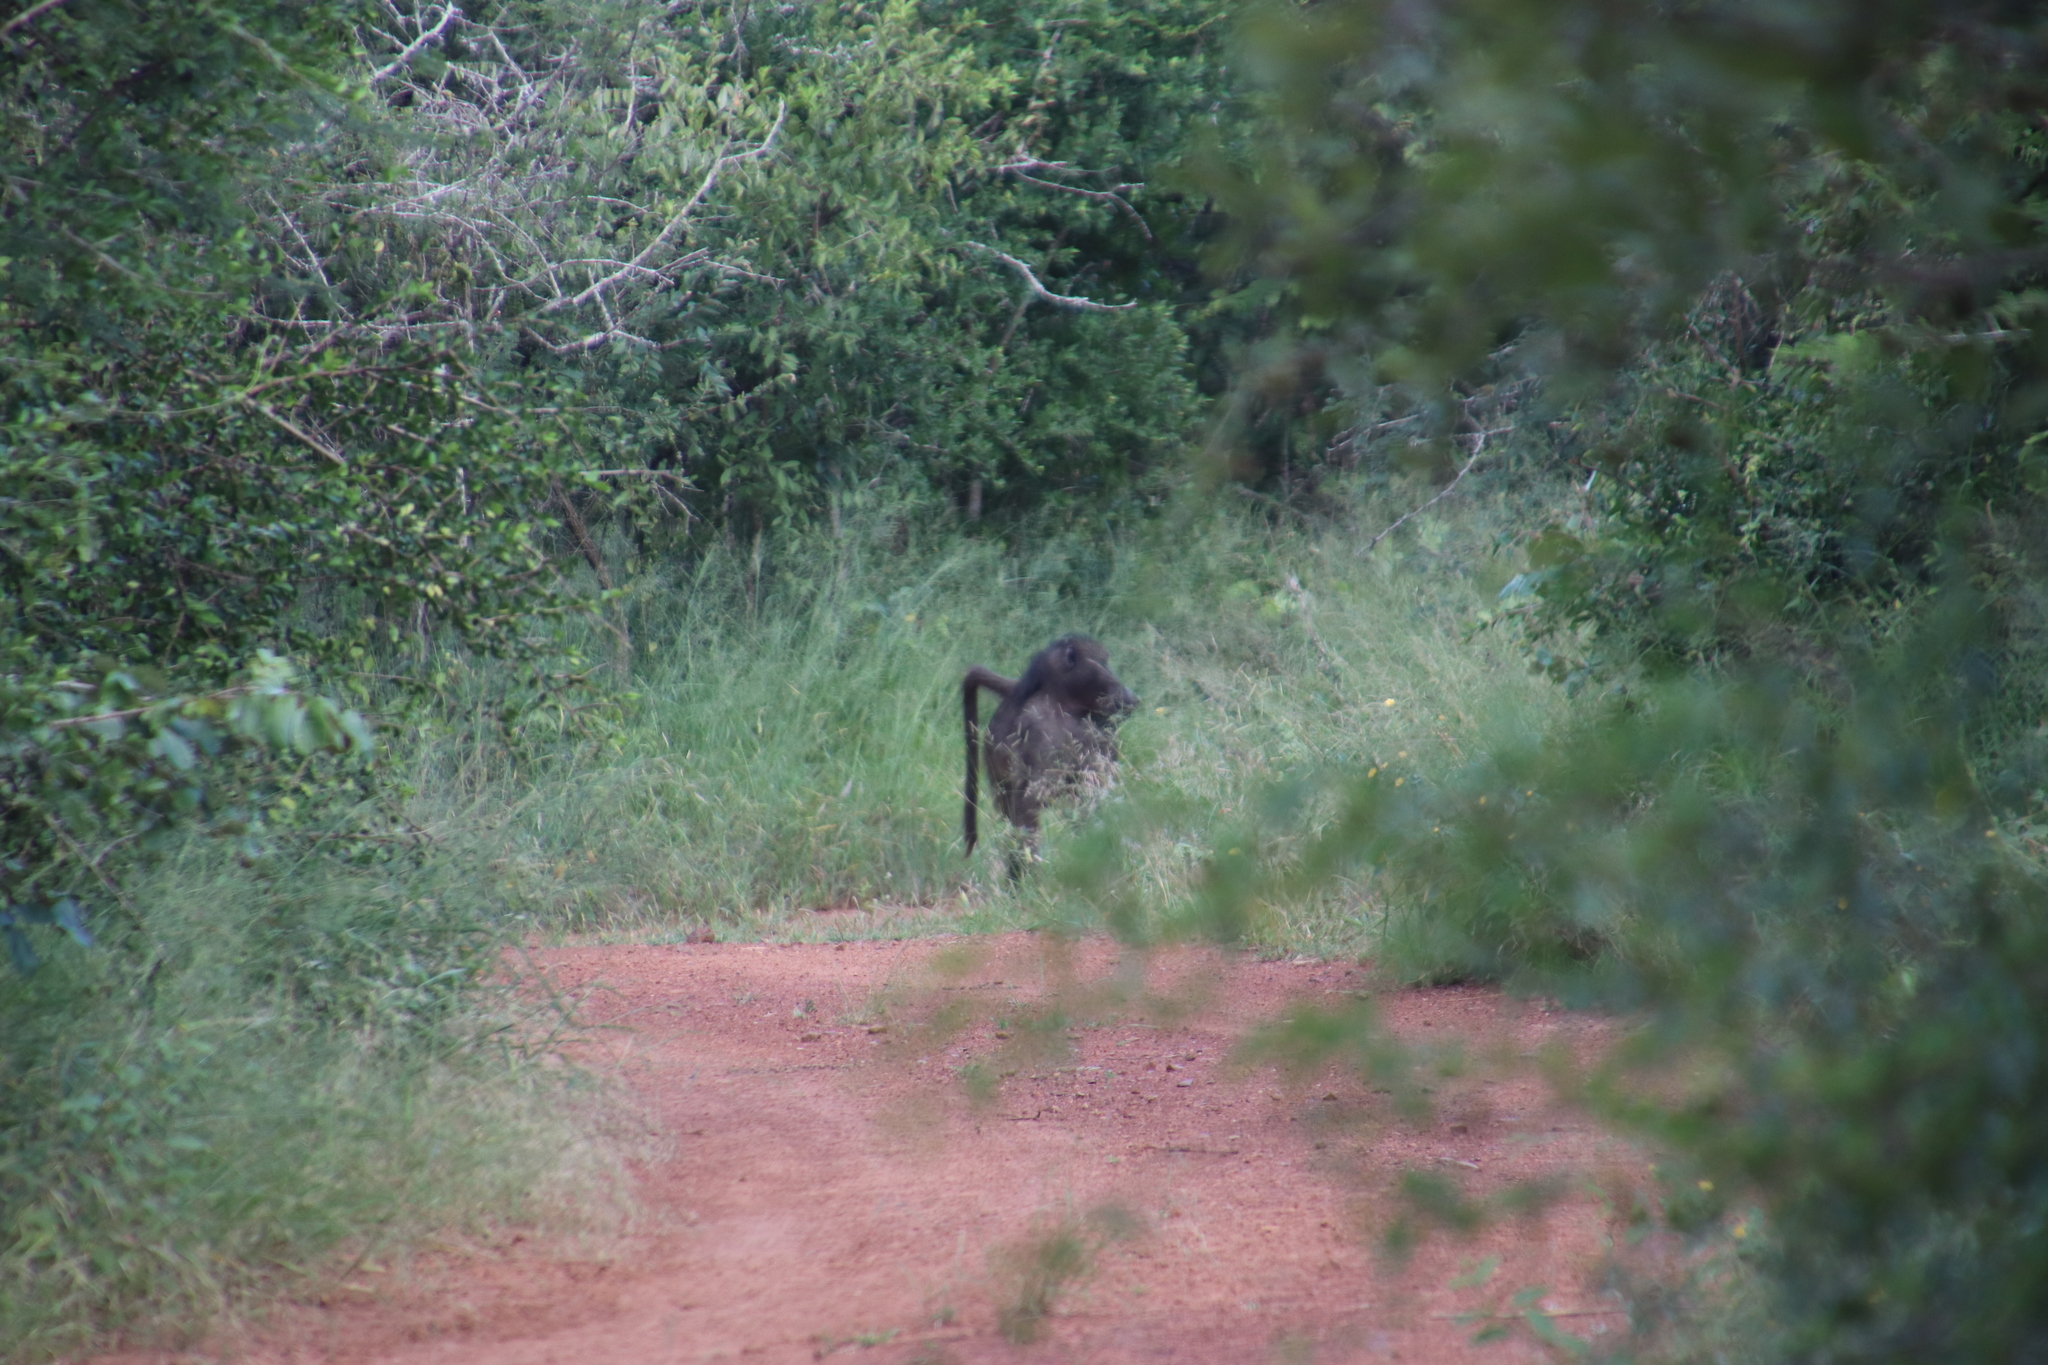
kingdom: Animalia
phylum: Chordata
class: Mammalia
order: Primates
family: Cercopithecidae
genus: Papio
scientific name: Papio ursinus
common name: Chacma baboon
